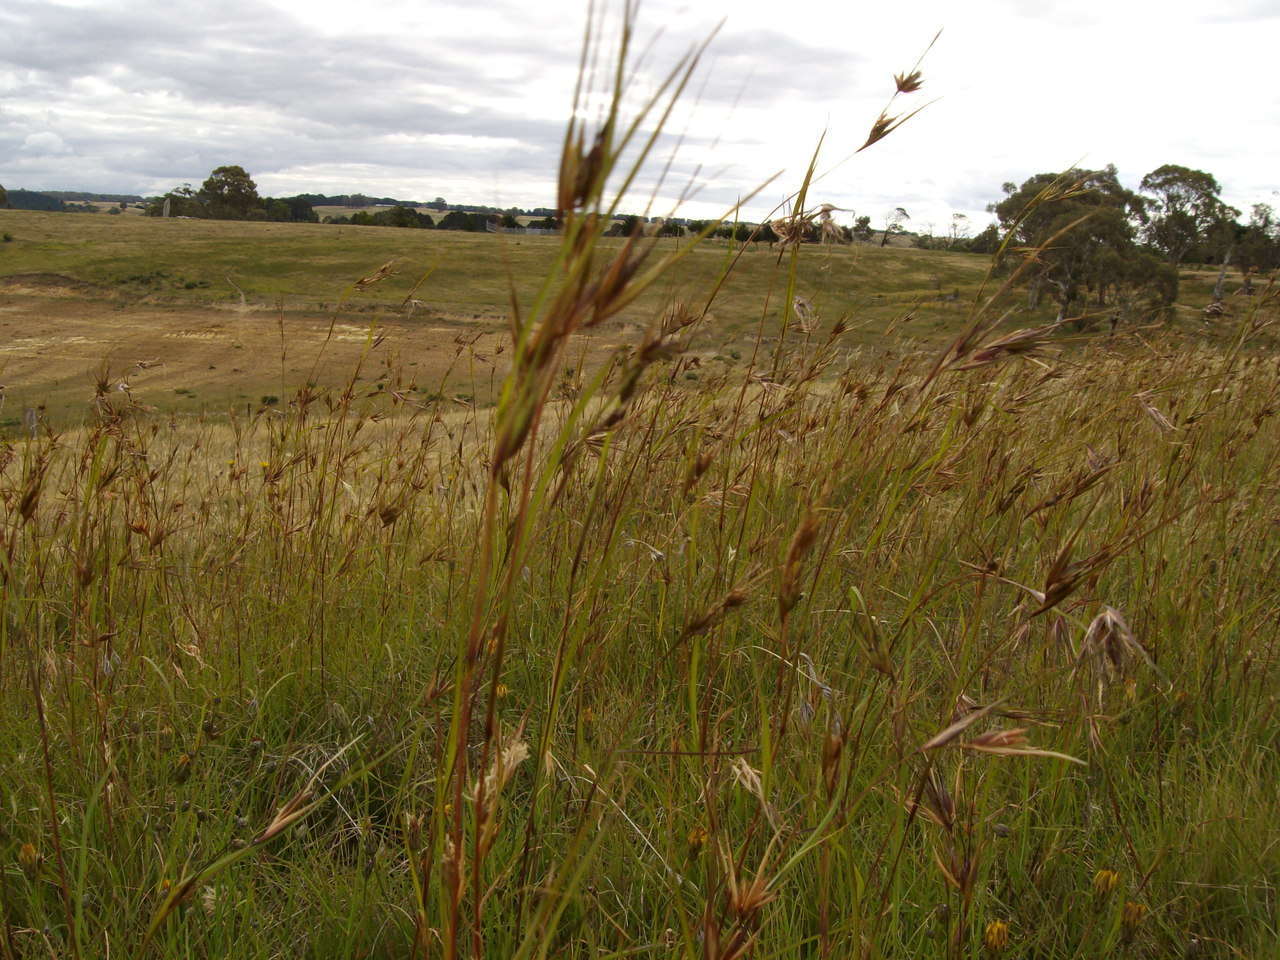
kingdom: Plantae
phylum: Tracheophyta
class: Liliopsida
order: Poales
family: Poaceae
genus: Themeda
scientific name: Themeda triandra
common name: Kangaroo grass
